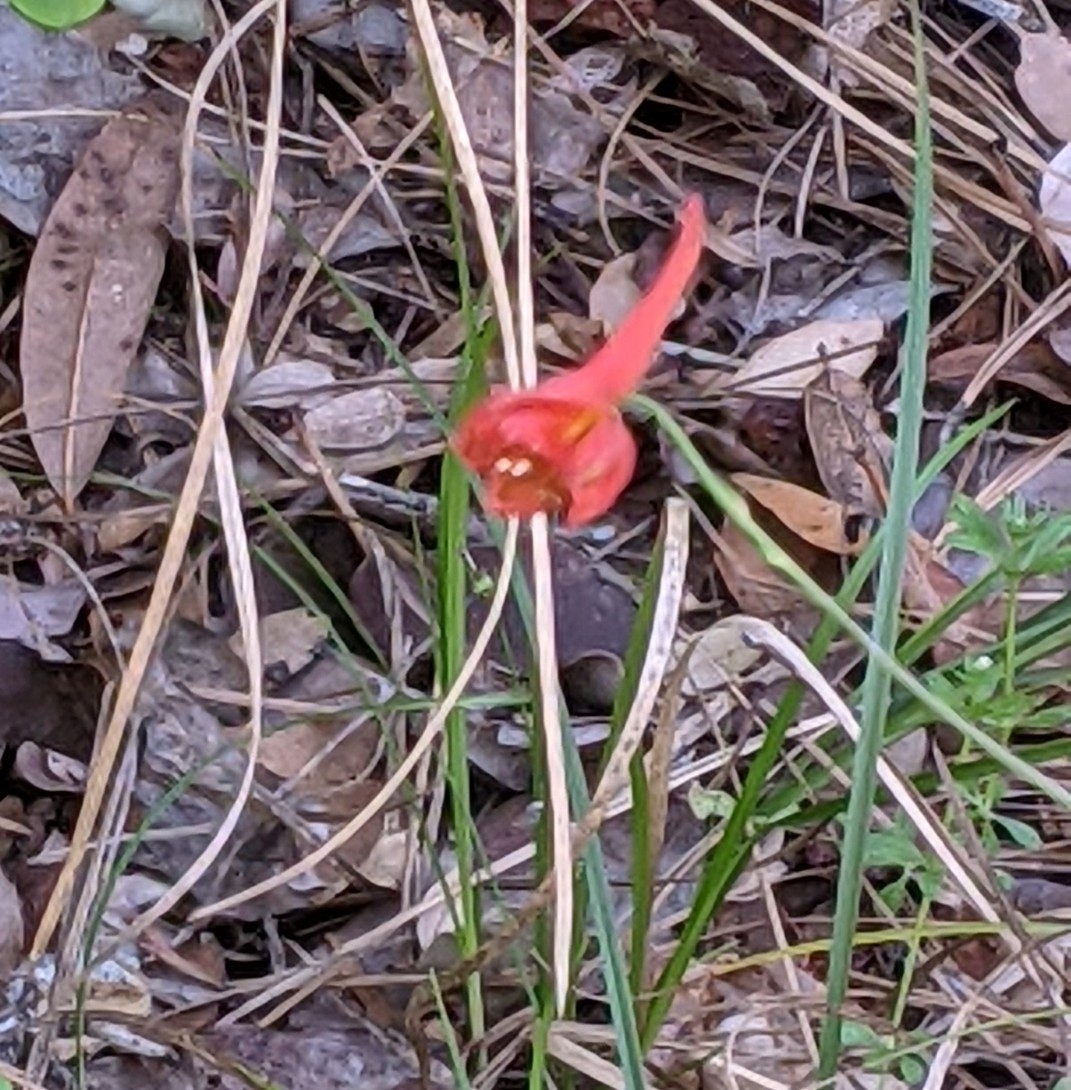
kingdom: Plantae
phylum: Tracheophyta
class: Magnoliopsida
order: Ranunculales
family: Ranunculaceae
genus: Delphinium
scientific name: Delphinium nudicaule
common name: Red larkspur
